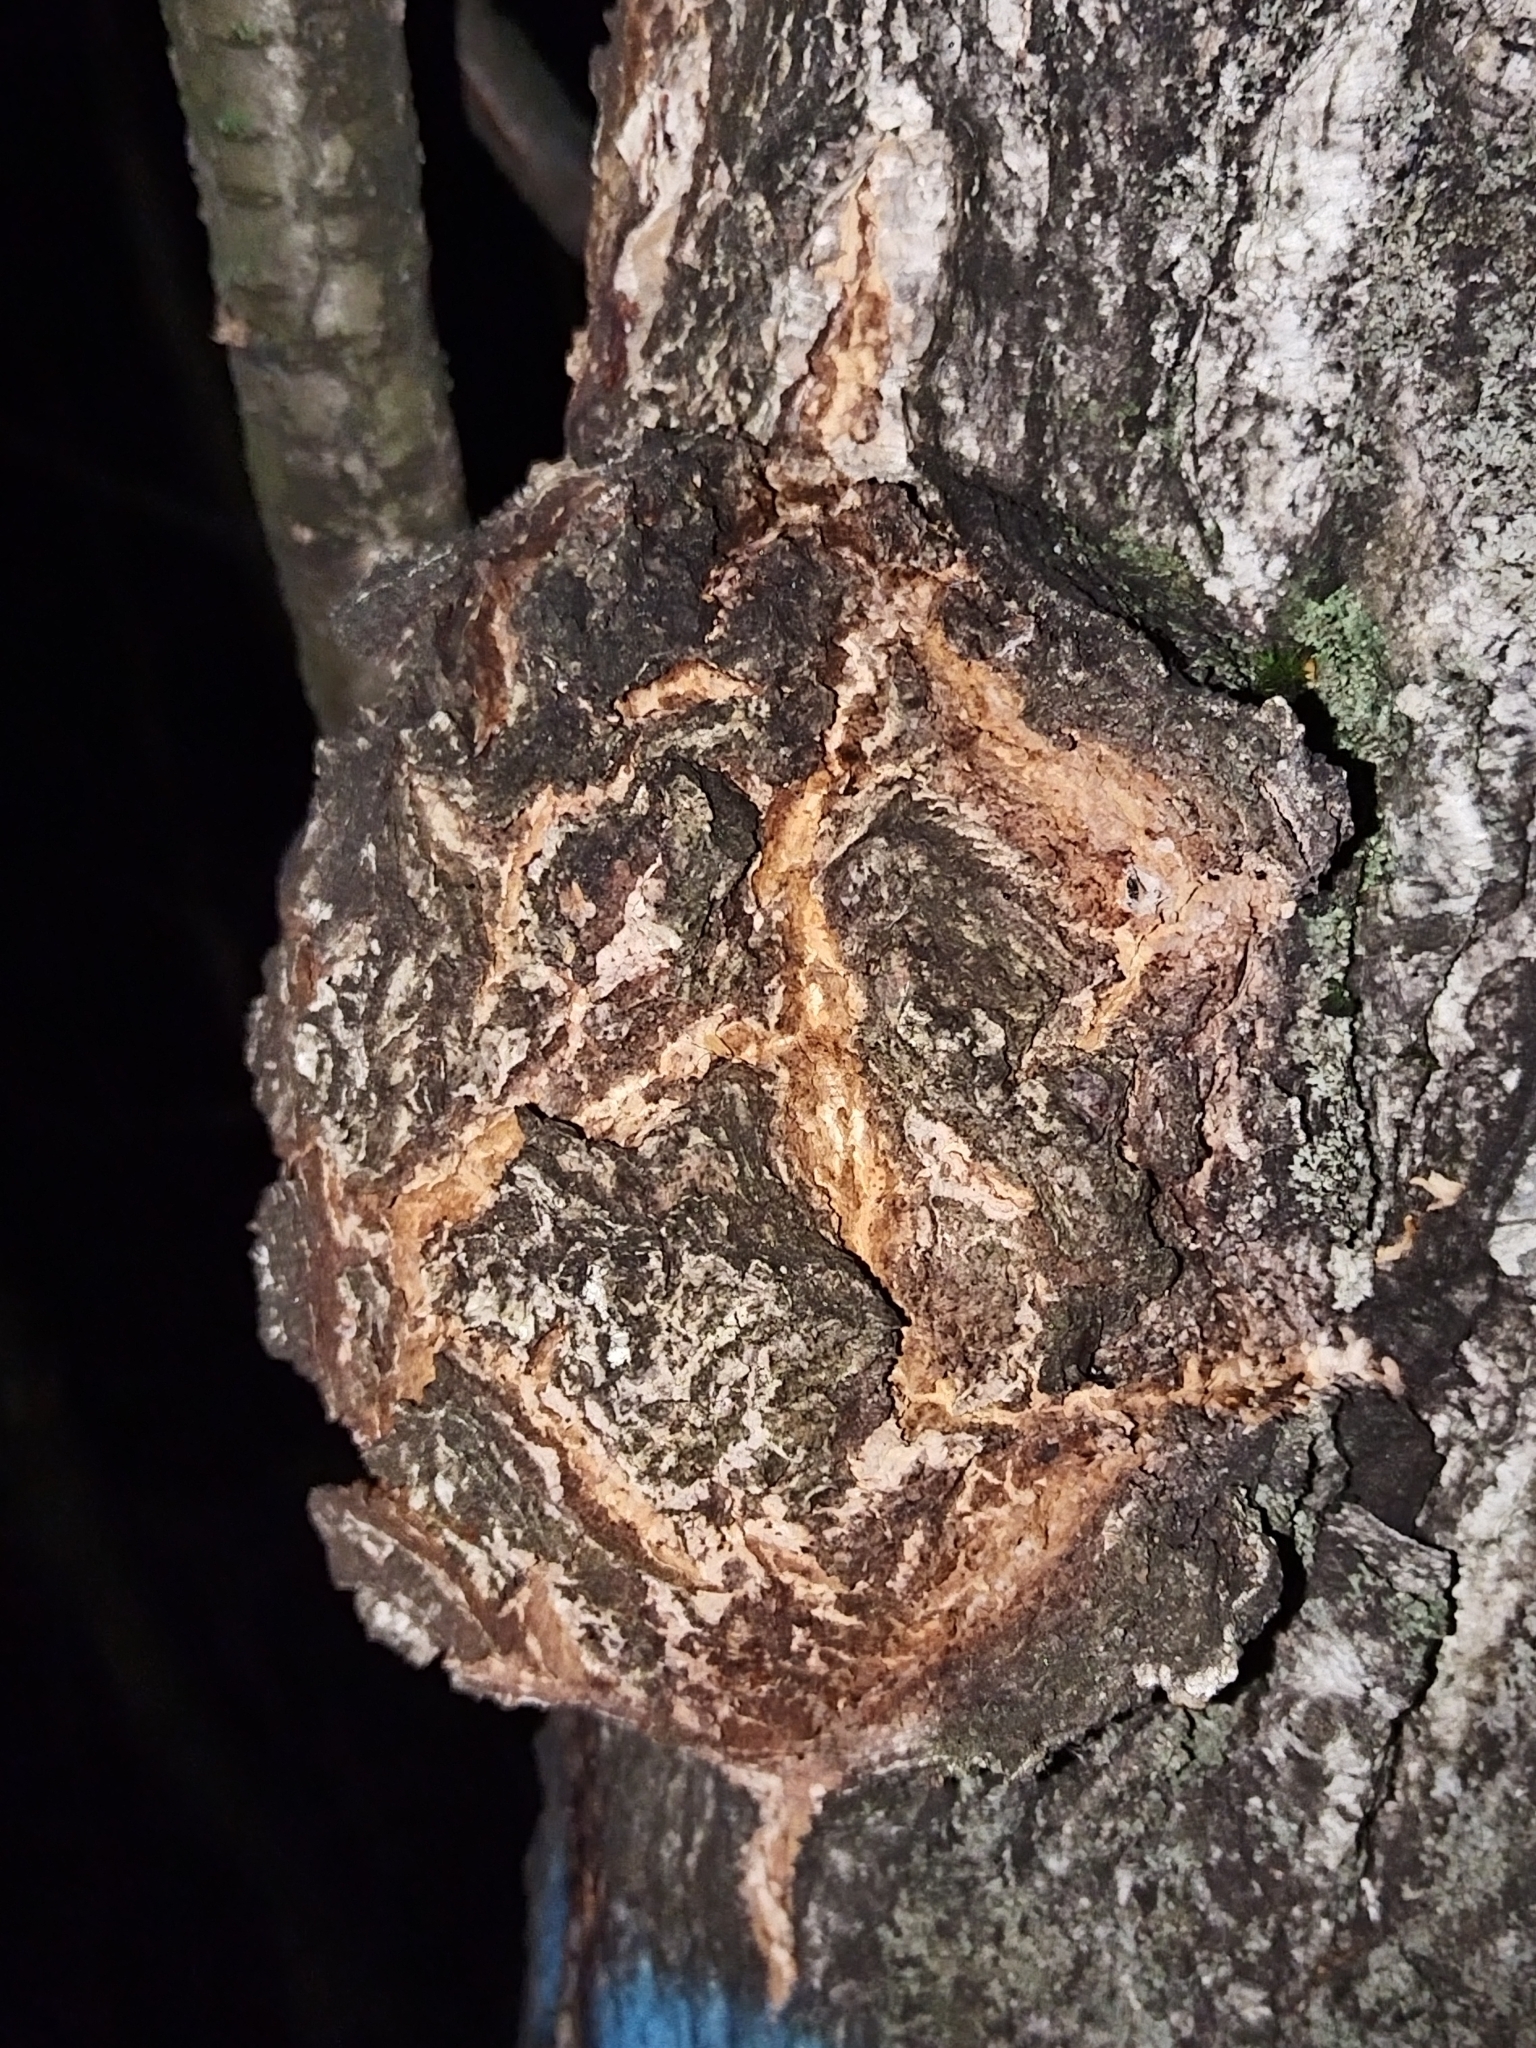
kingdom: Bacteria
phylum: Proteobacteria
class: Alphaproteobacteria
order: Rhizobiales
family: Rhizobiaceae
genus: Rhizobium
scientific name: Rhizobium Agrobacterium radiobacter
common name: Bacterial crown gall
